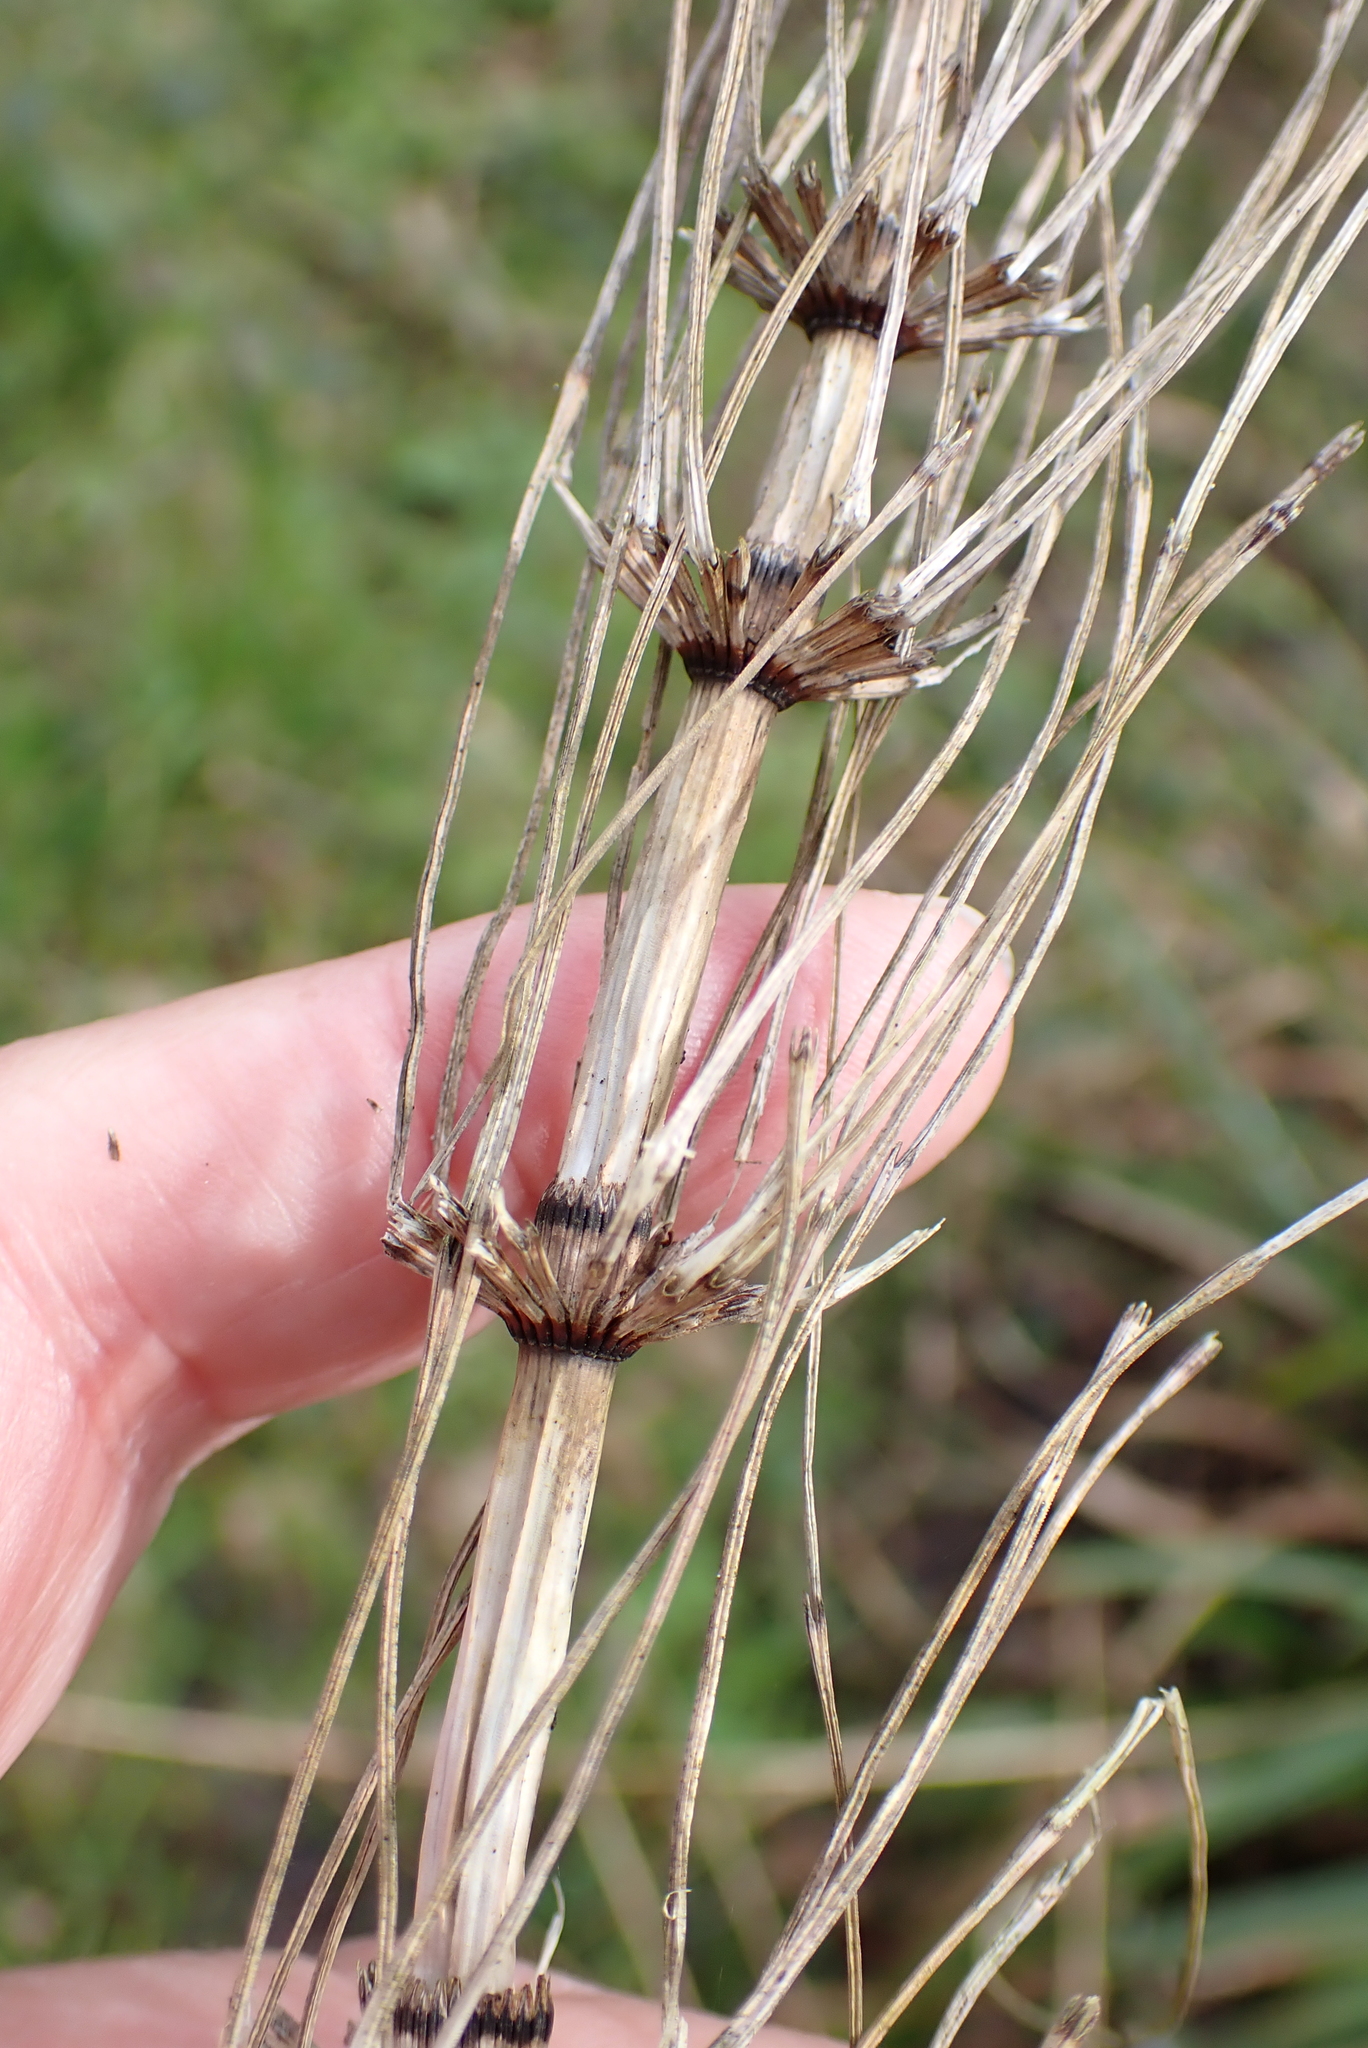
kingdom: Plantae
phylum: Tracheophyta
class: Polypodiopsida
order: Equisetales
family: Equisetaceae
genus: Equisetum
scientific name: Equisetum telmateia
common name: Great horsetail
